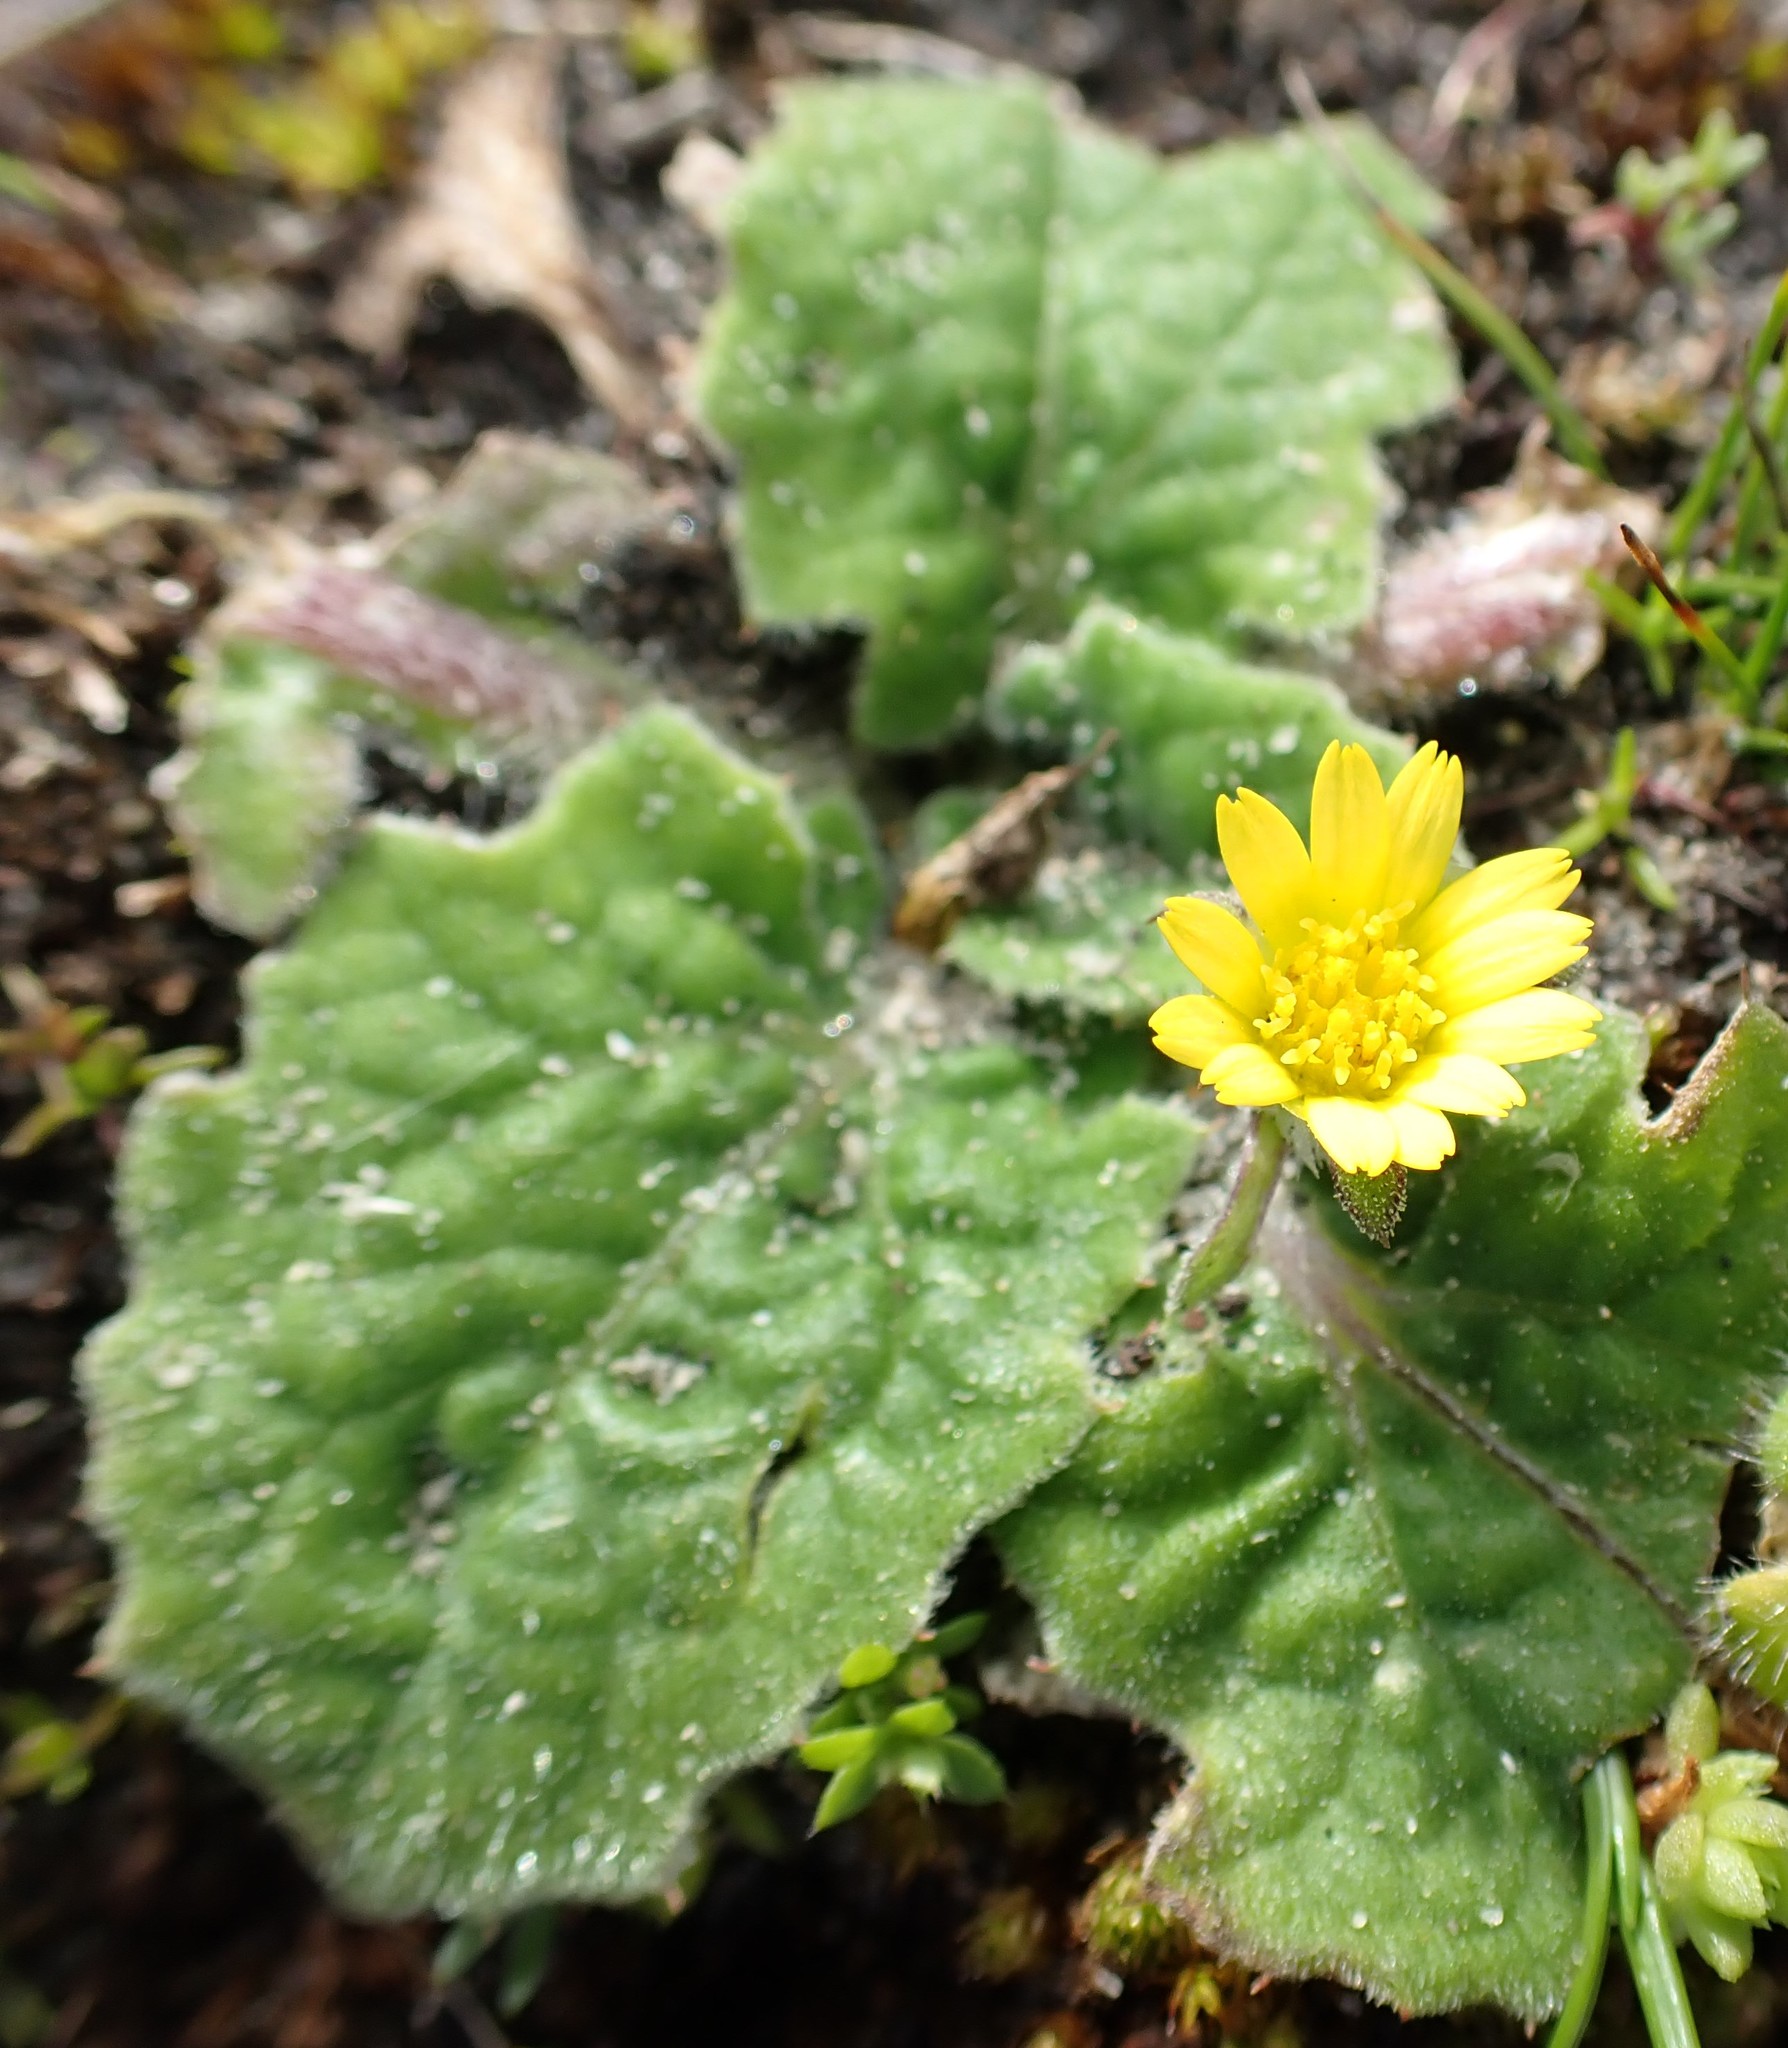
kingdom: Plantae
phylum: Tracheophyta
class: Magnoliopsida
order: Asterales
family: Asteraceae
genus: Cymbonotus
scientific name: Cymbonotus preissianus
